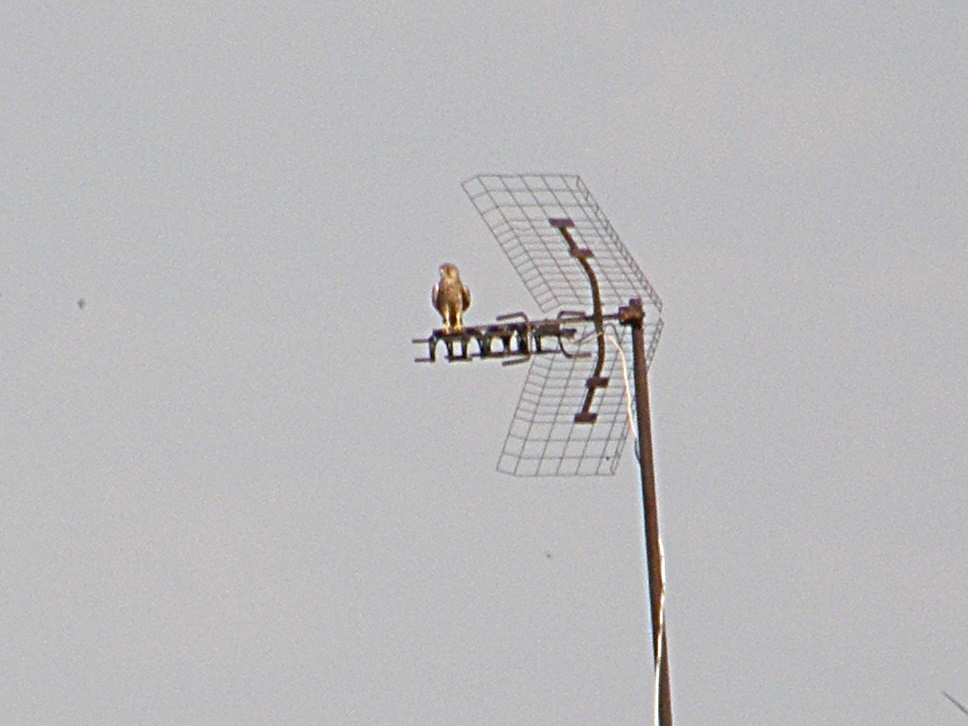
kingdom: Animalia
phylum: Chordata
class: Aves
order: Falconiformes
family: Falconidae
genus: Falco
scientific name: Falco tinnunculus
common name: Common kestrel
